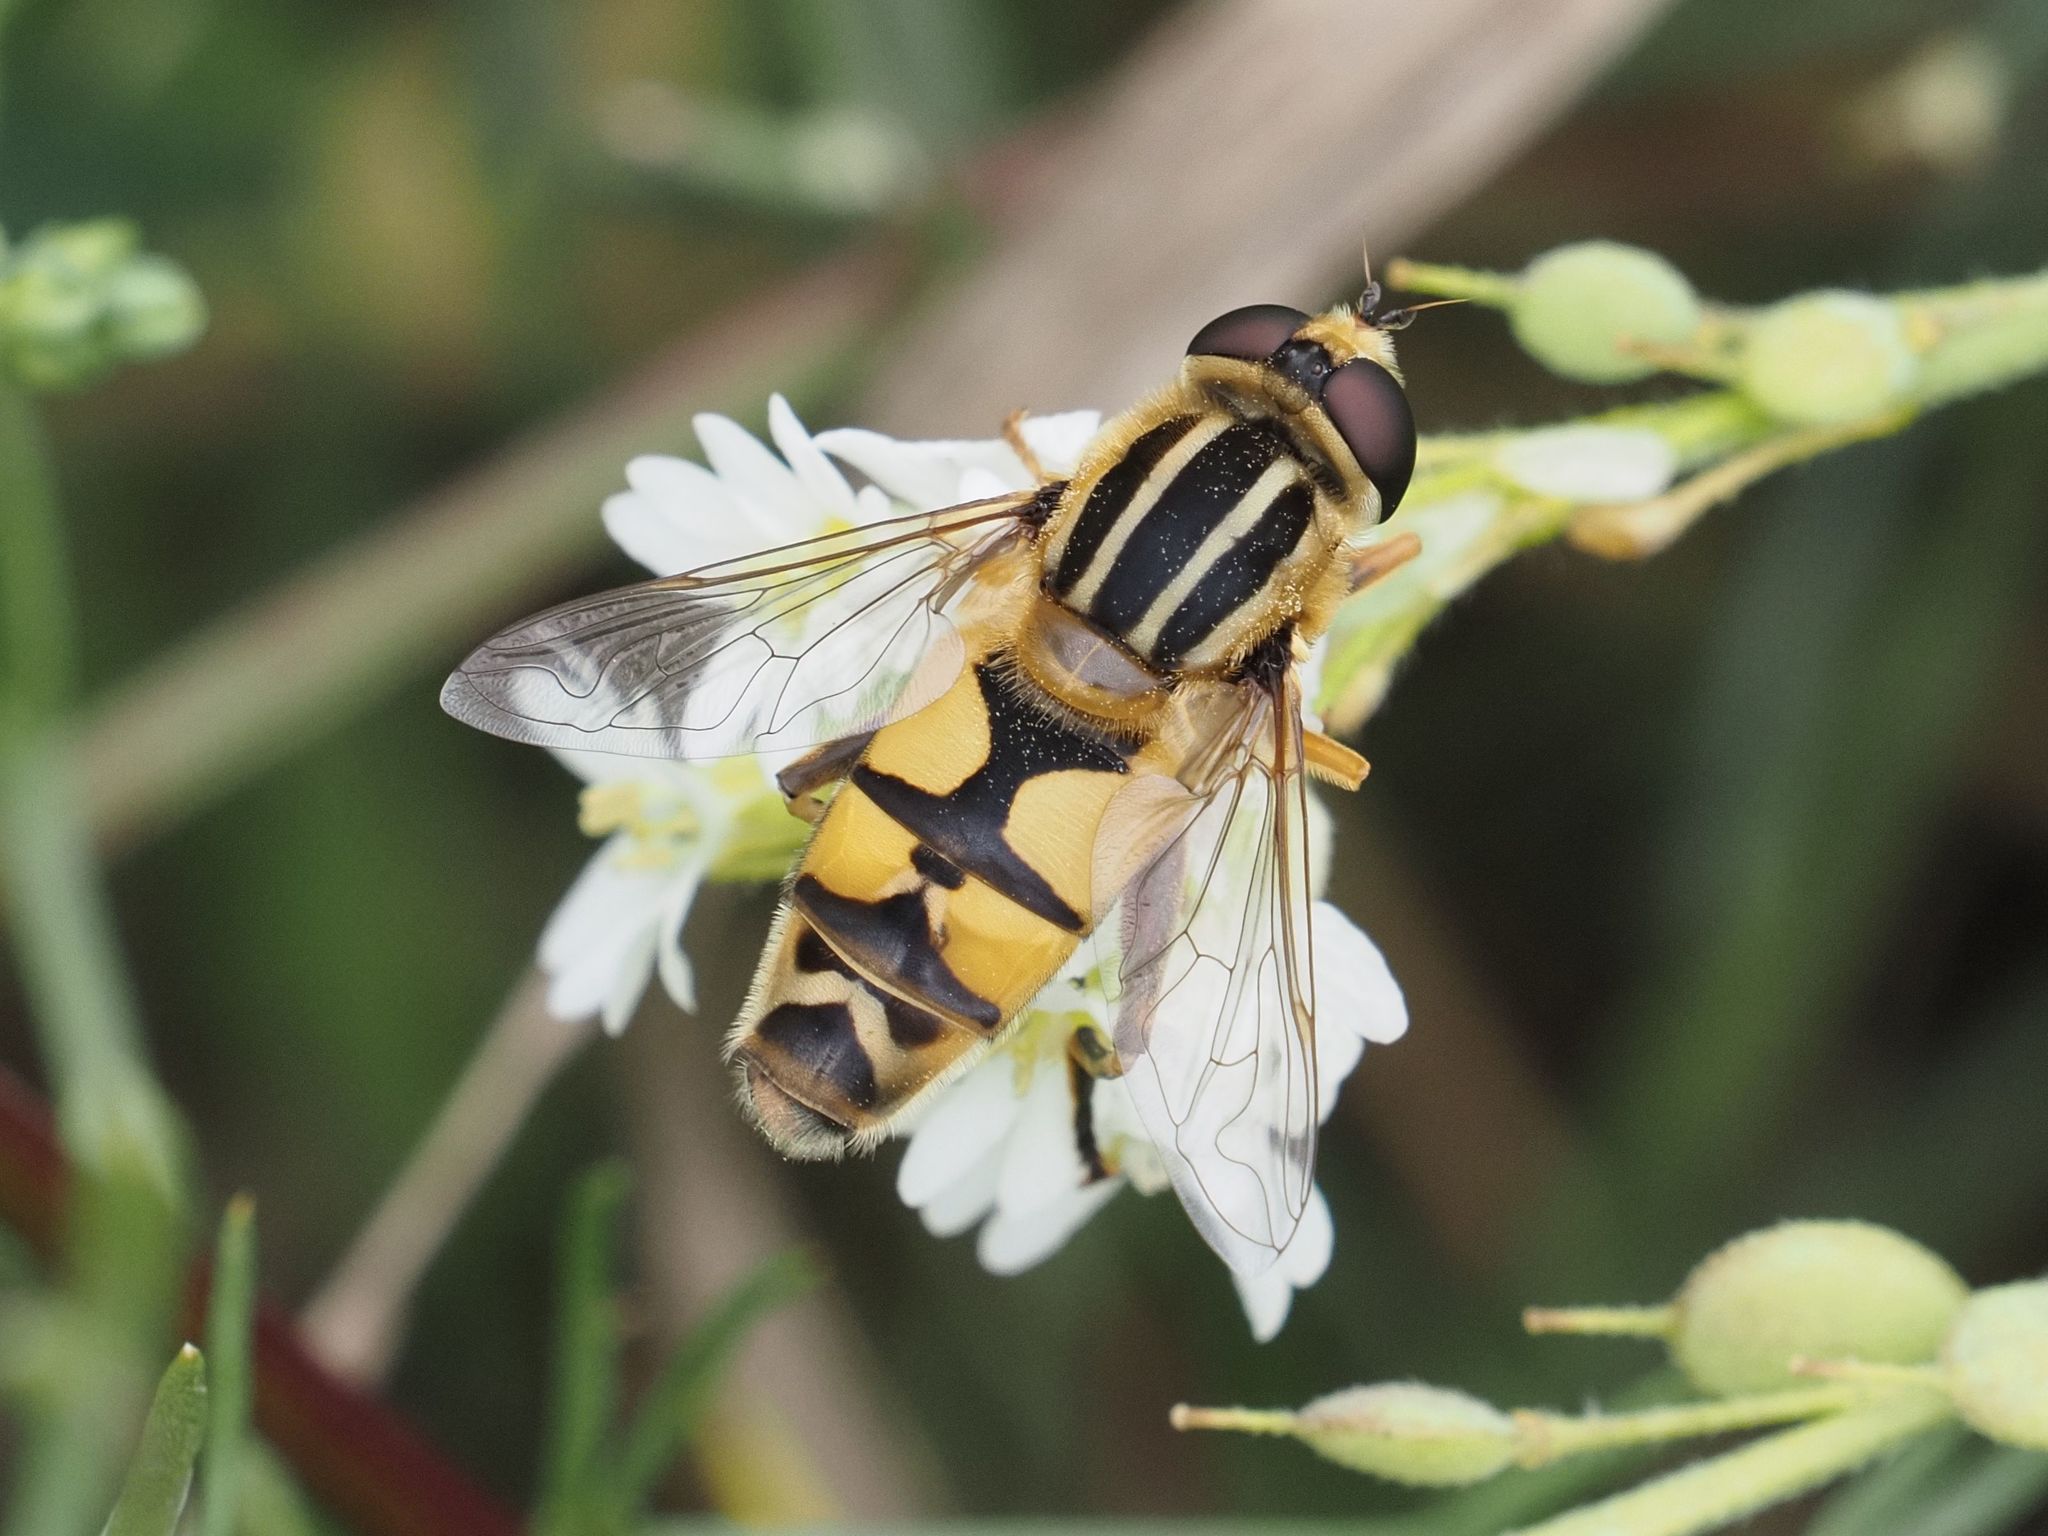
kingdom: Animalia
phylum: Arthropoda
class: Insecta
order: Diptera
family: Syrphidae
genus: Helophilus
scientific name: Helophilus trivittatus
